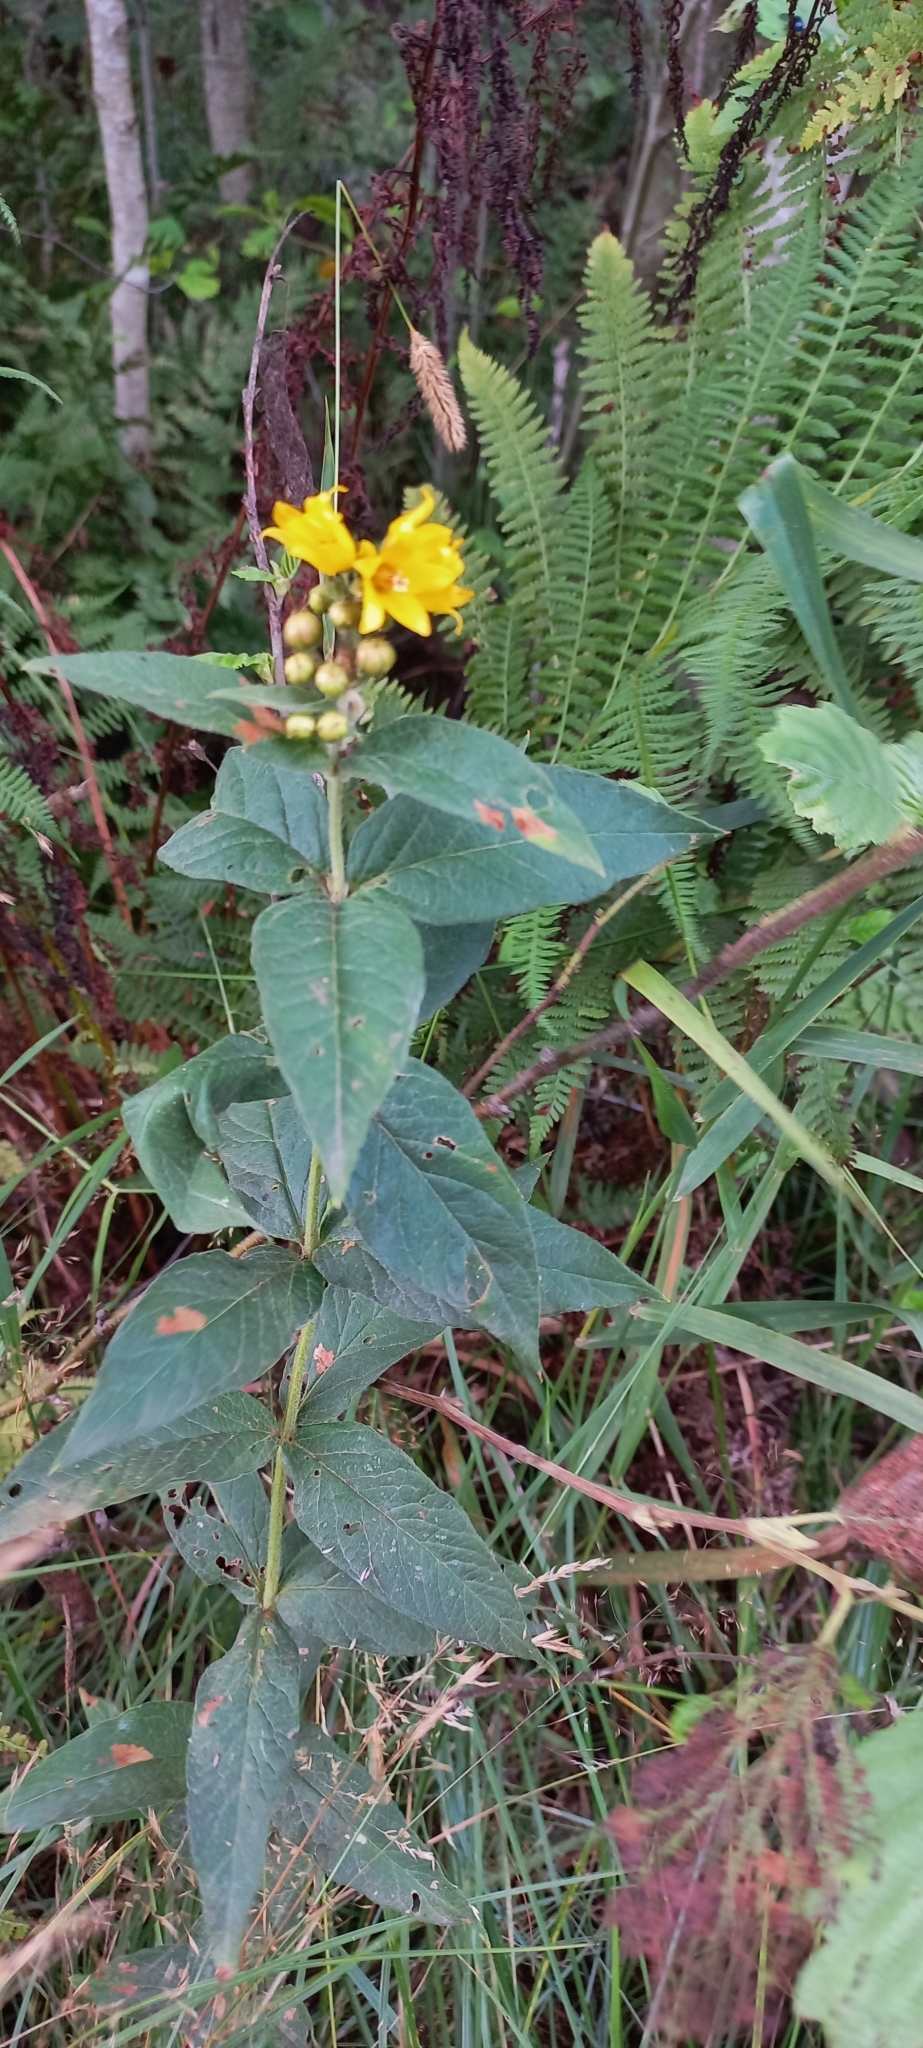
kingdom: Plantae
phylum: Tracheophyta
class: Magnoliopsida
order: Ericales
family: Primulaceae
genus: Lysimachia
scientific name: Lysimachia vulgaris
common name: Yellow loosestrife
